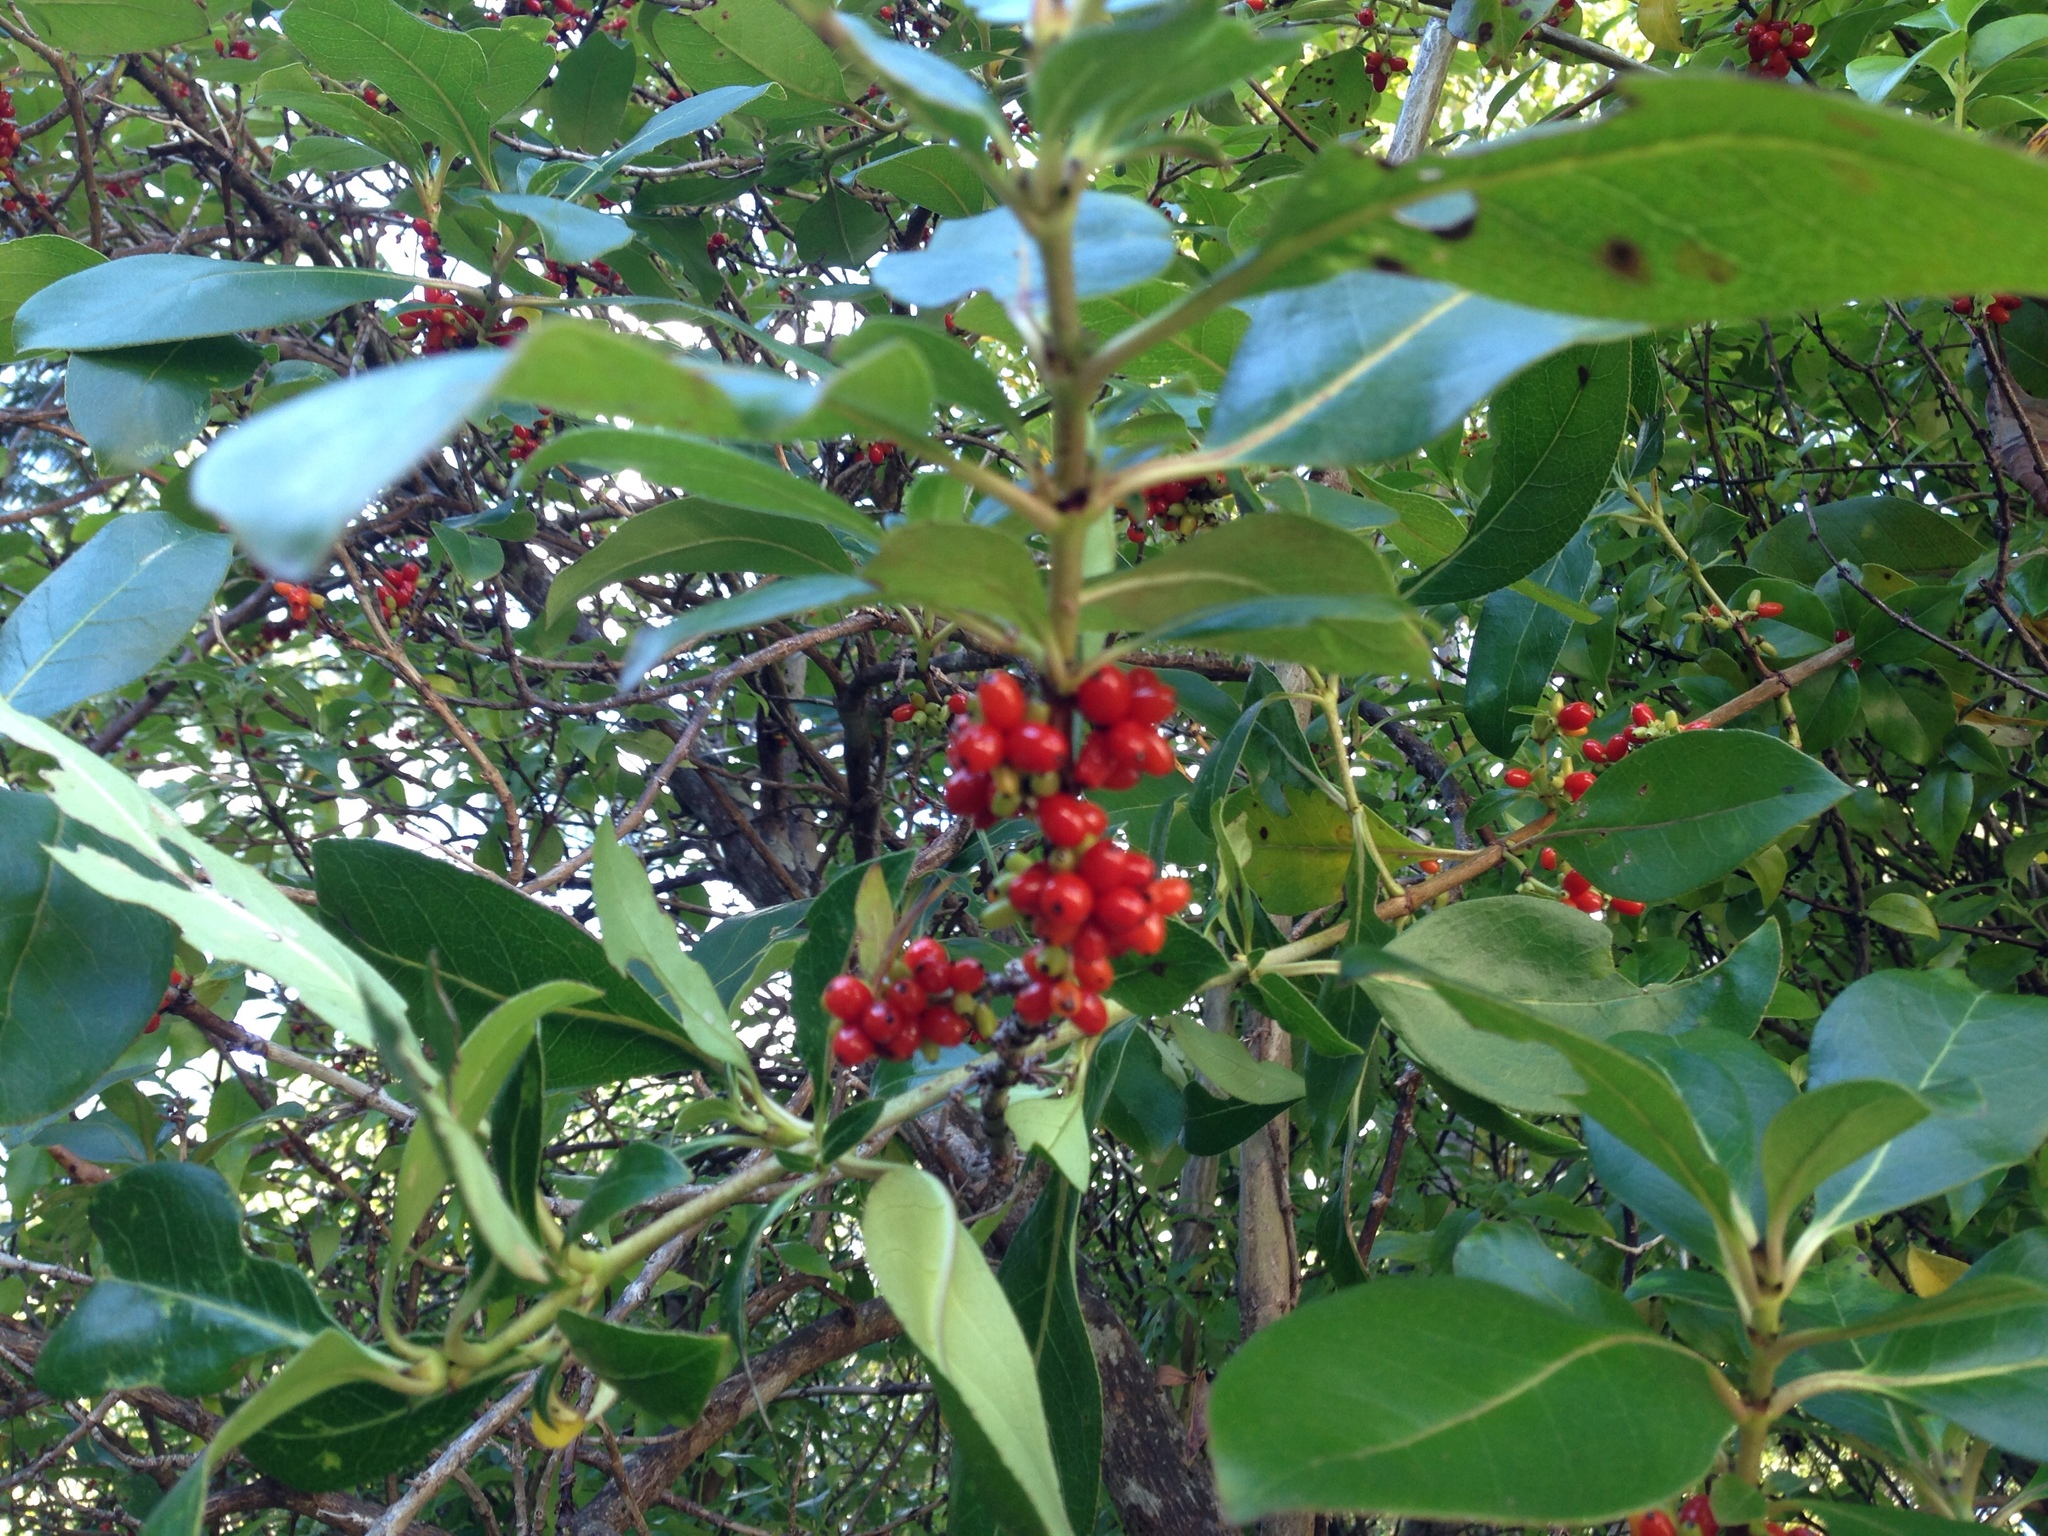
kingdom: Plantae
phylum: Tracheophyta
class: Magnoliopsida
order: Gentianales
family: Rubiaceae
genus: Coprosma
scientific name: Coprosma robusta
